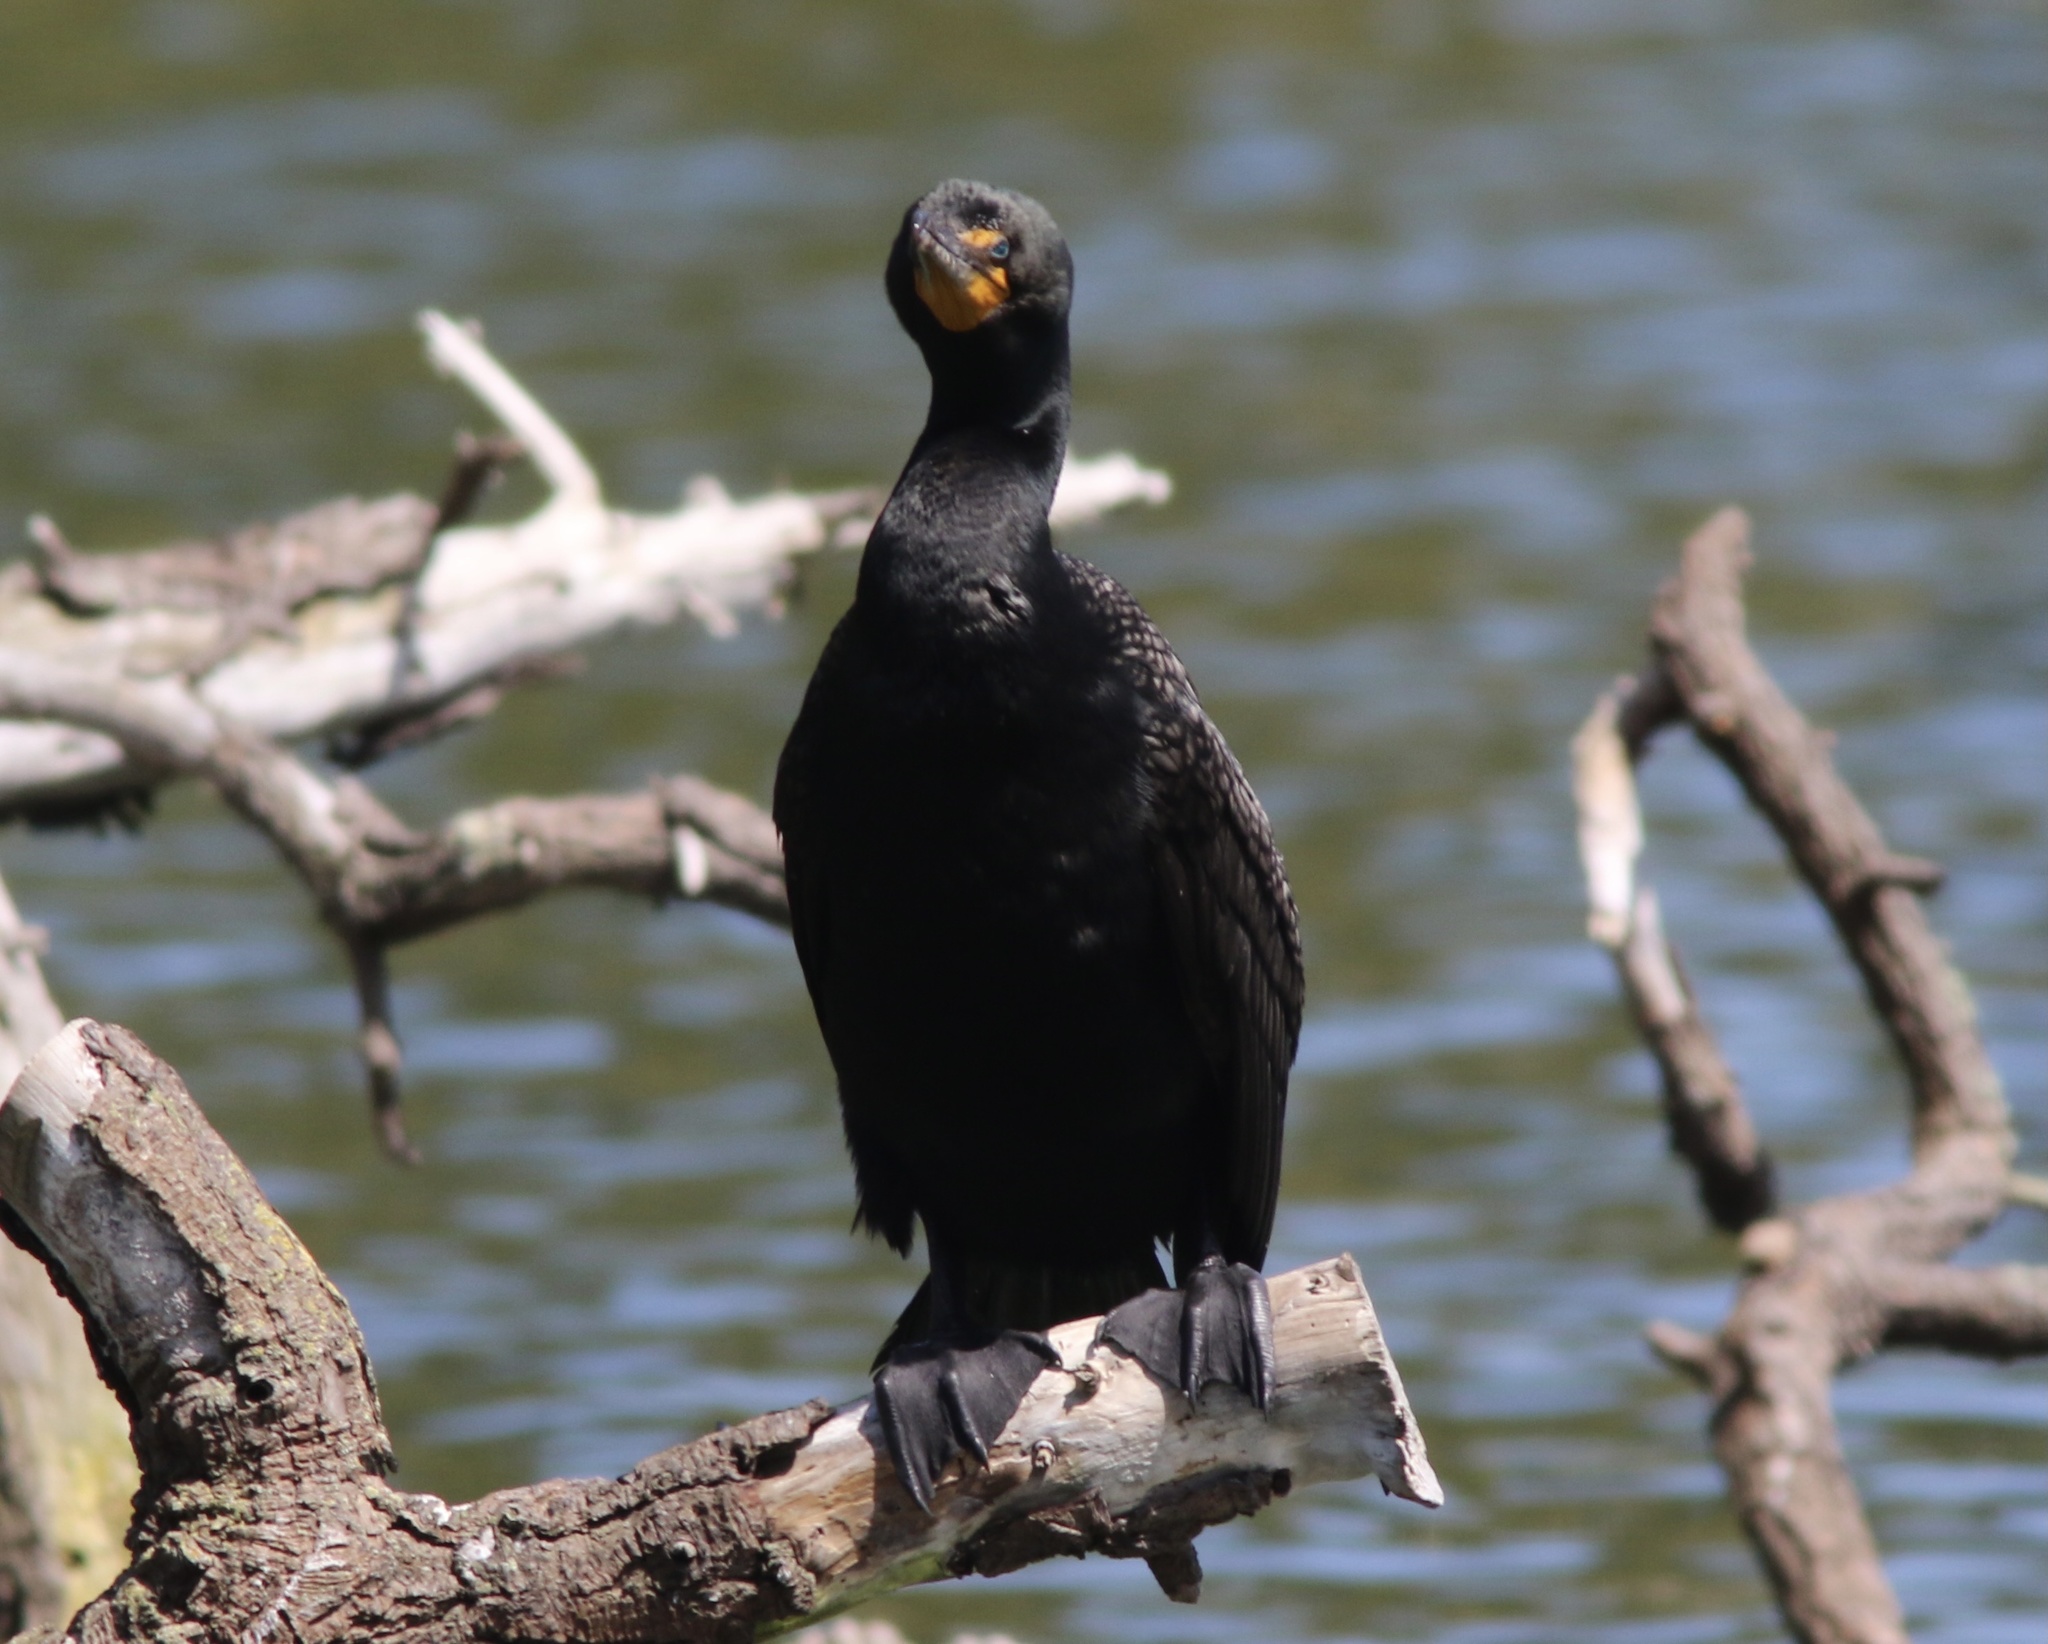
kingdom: Animalia
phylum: Chordata
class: Aves
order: Suliformes
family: Phalacrocoracidae
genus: Phalacrocorax
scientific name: Phalacrocorax auritus
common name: Double-crested cormorant
